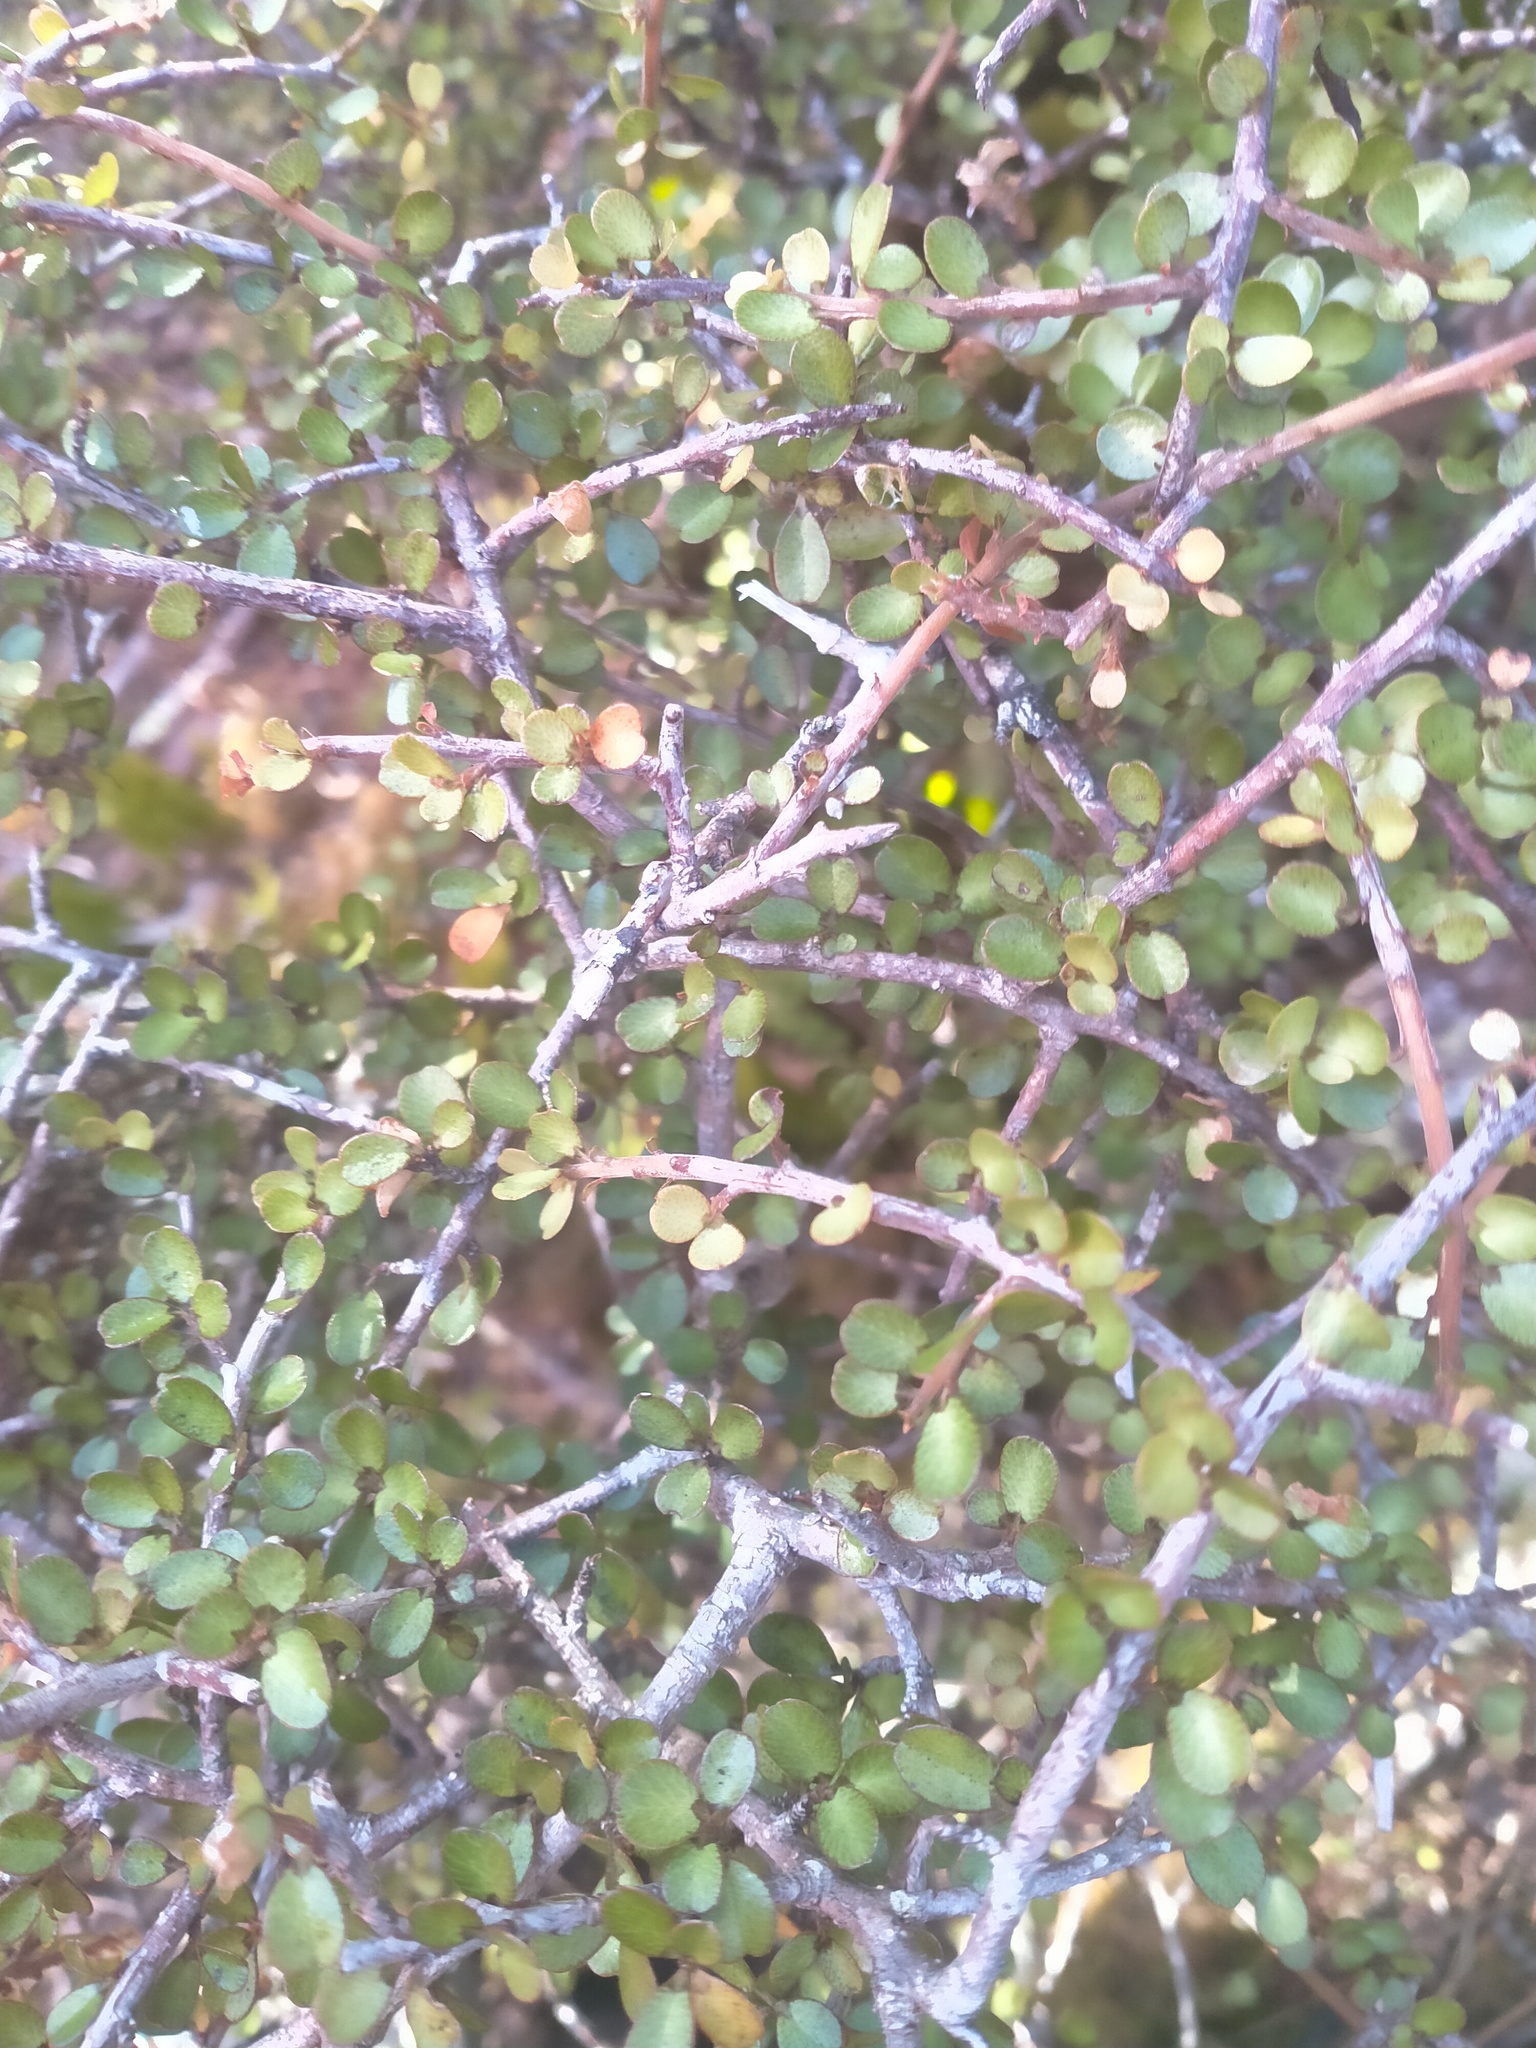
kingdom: Plantae
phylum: Tracheophyta
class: Magnoliopsida
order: Ericales
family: Primulaceae
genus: Myrsine
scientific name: Myrsine divaricata
